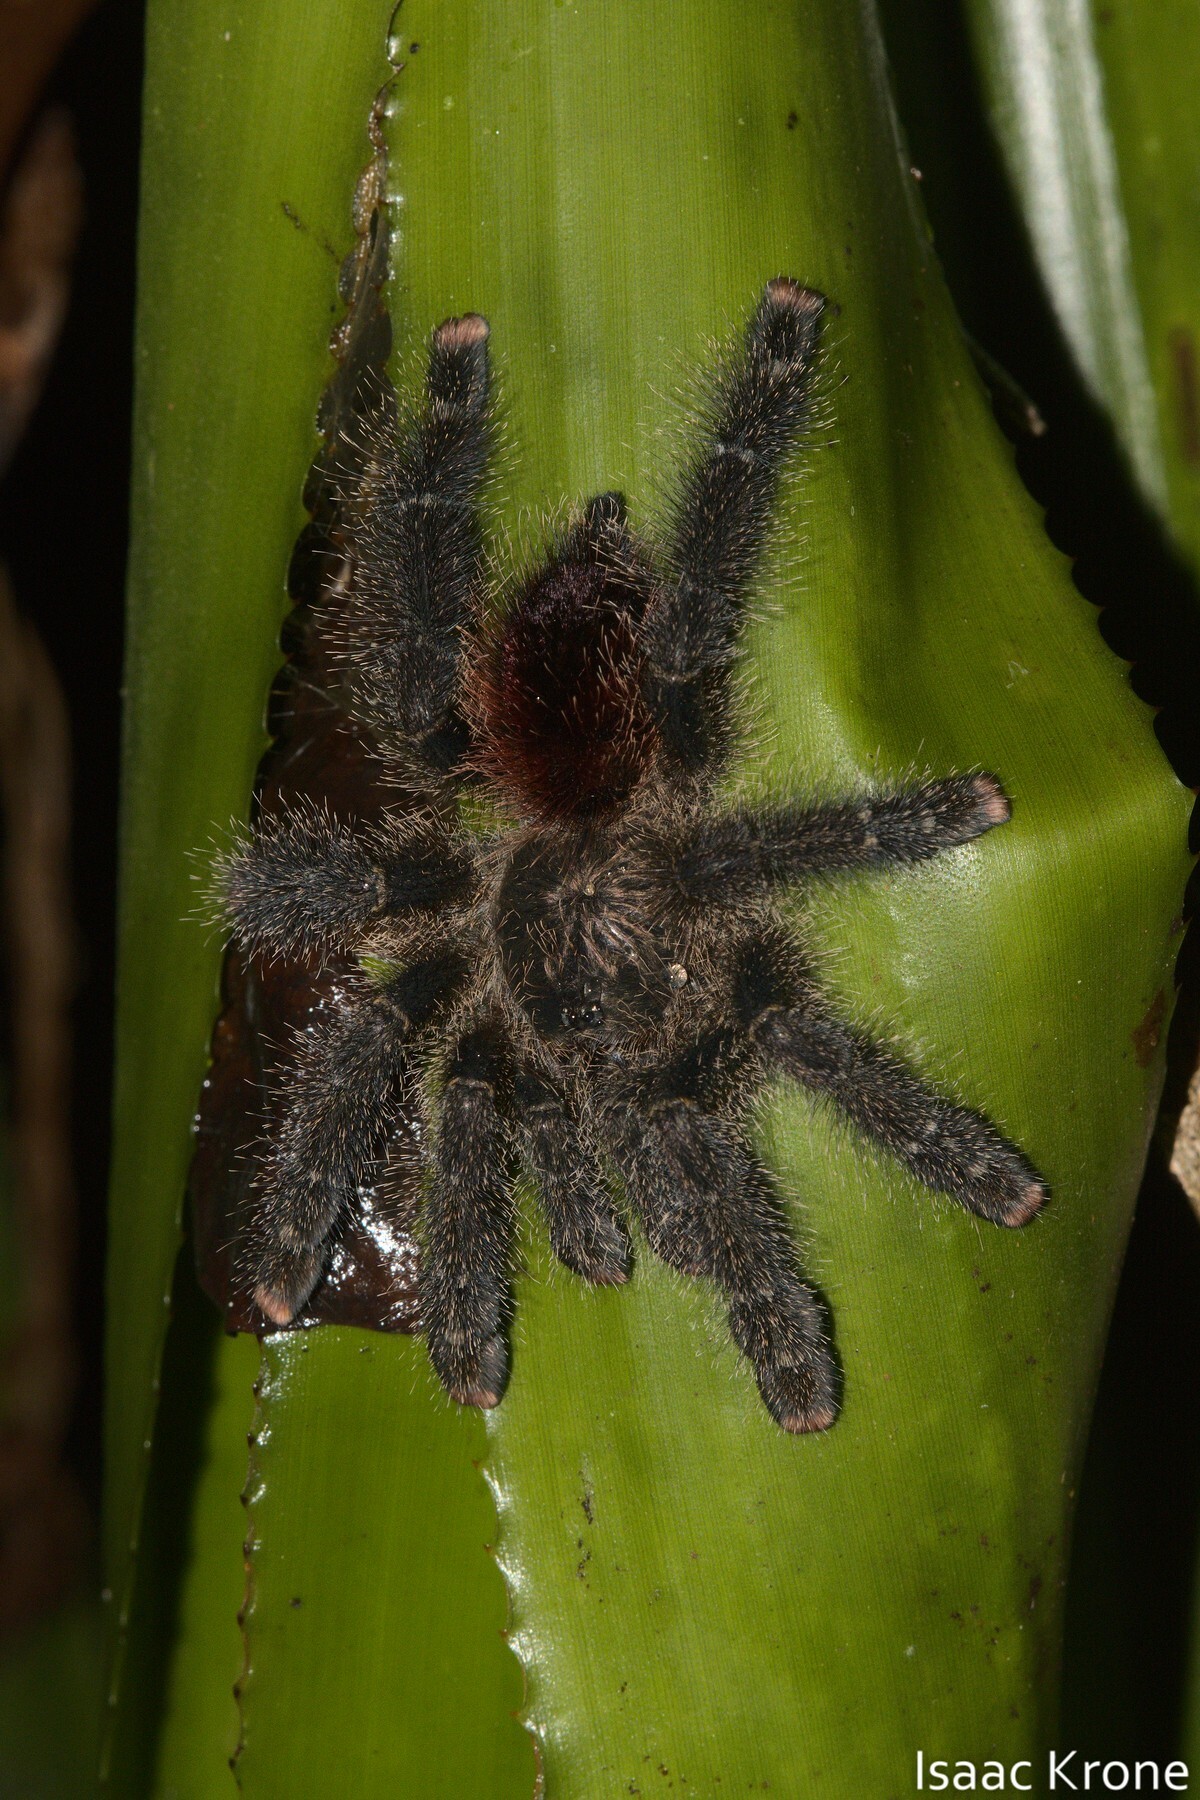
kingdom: Animalia
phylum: Arthropoda
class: Arachnida
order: Araneae
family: Theraphosidae
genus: Avicularia
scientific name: Avicularia juruensis
